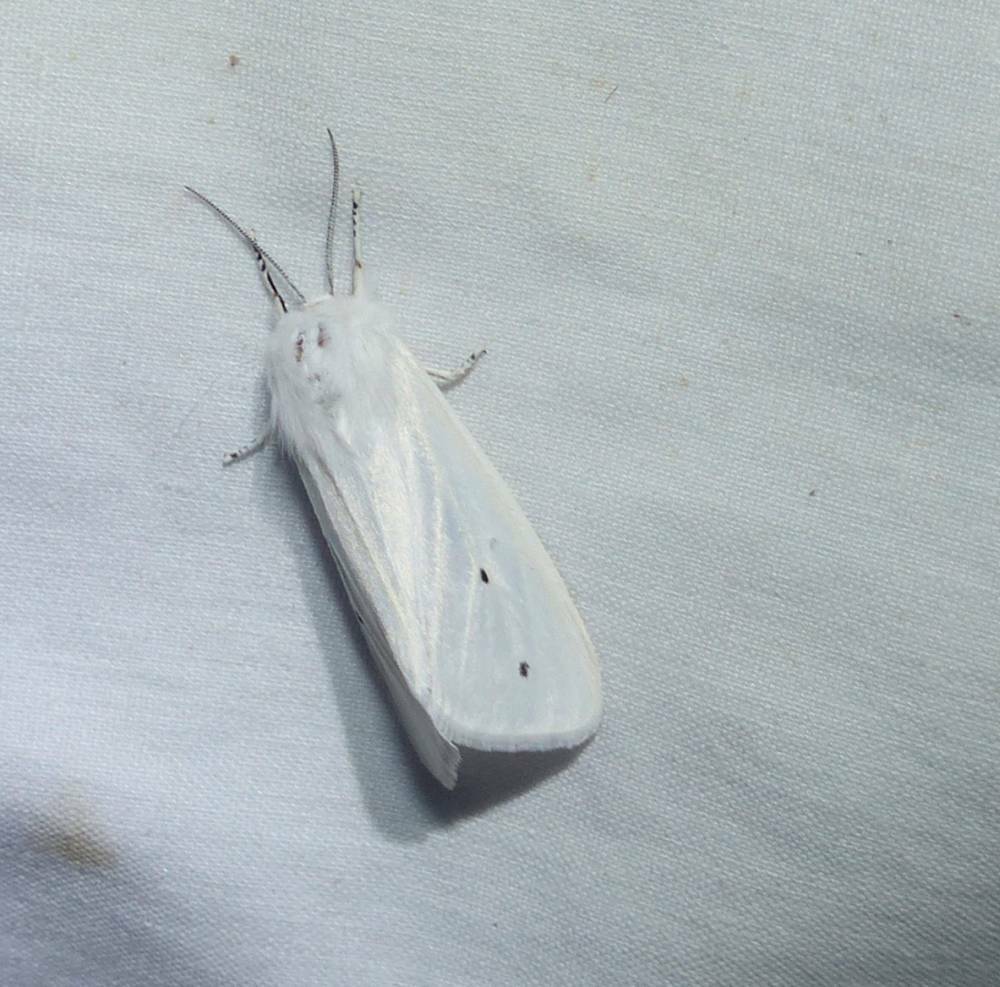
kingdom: Animalia
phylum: Arthropoda
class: Insecta
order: Lepidoptera
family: Erebidae
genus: Spilosoma
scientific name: Spilosoma virginica
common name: Virginia tiger moth
